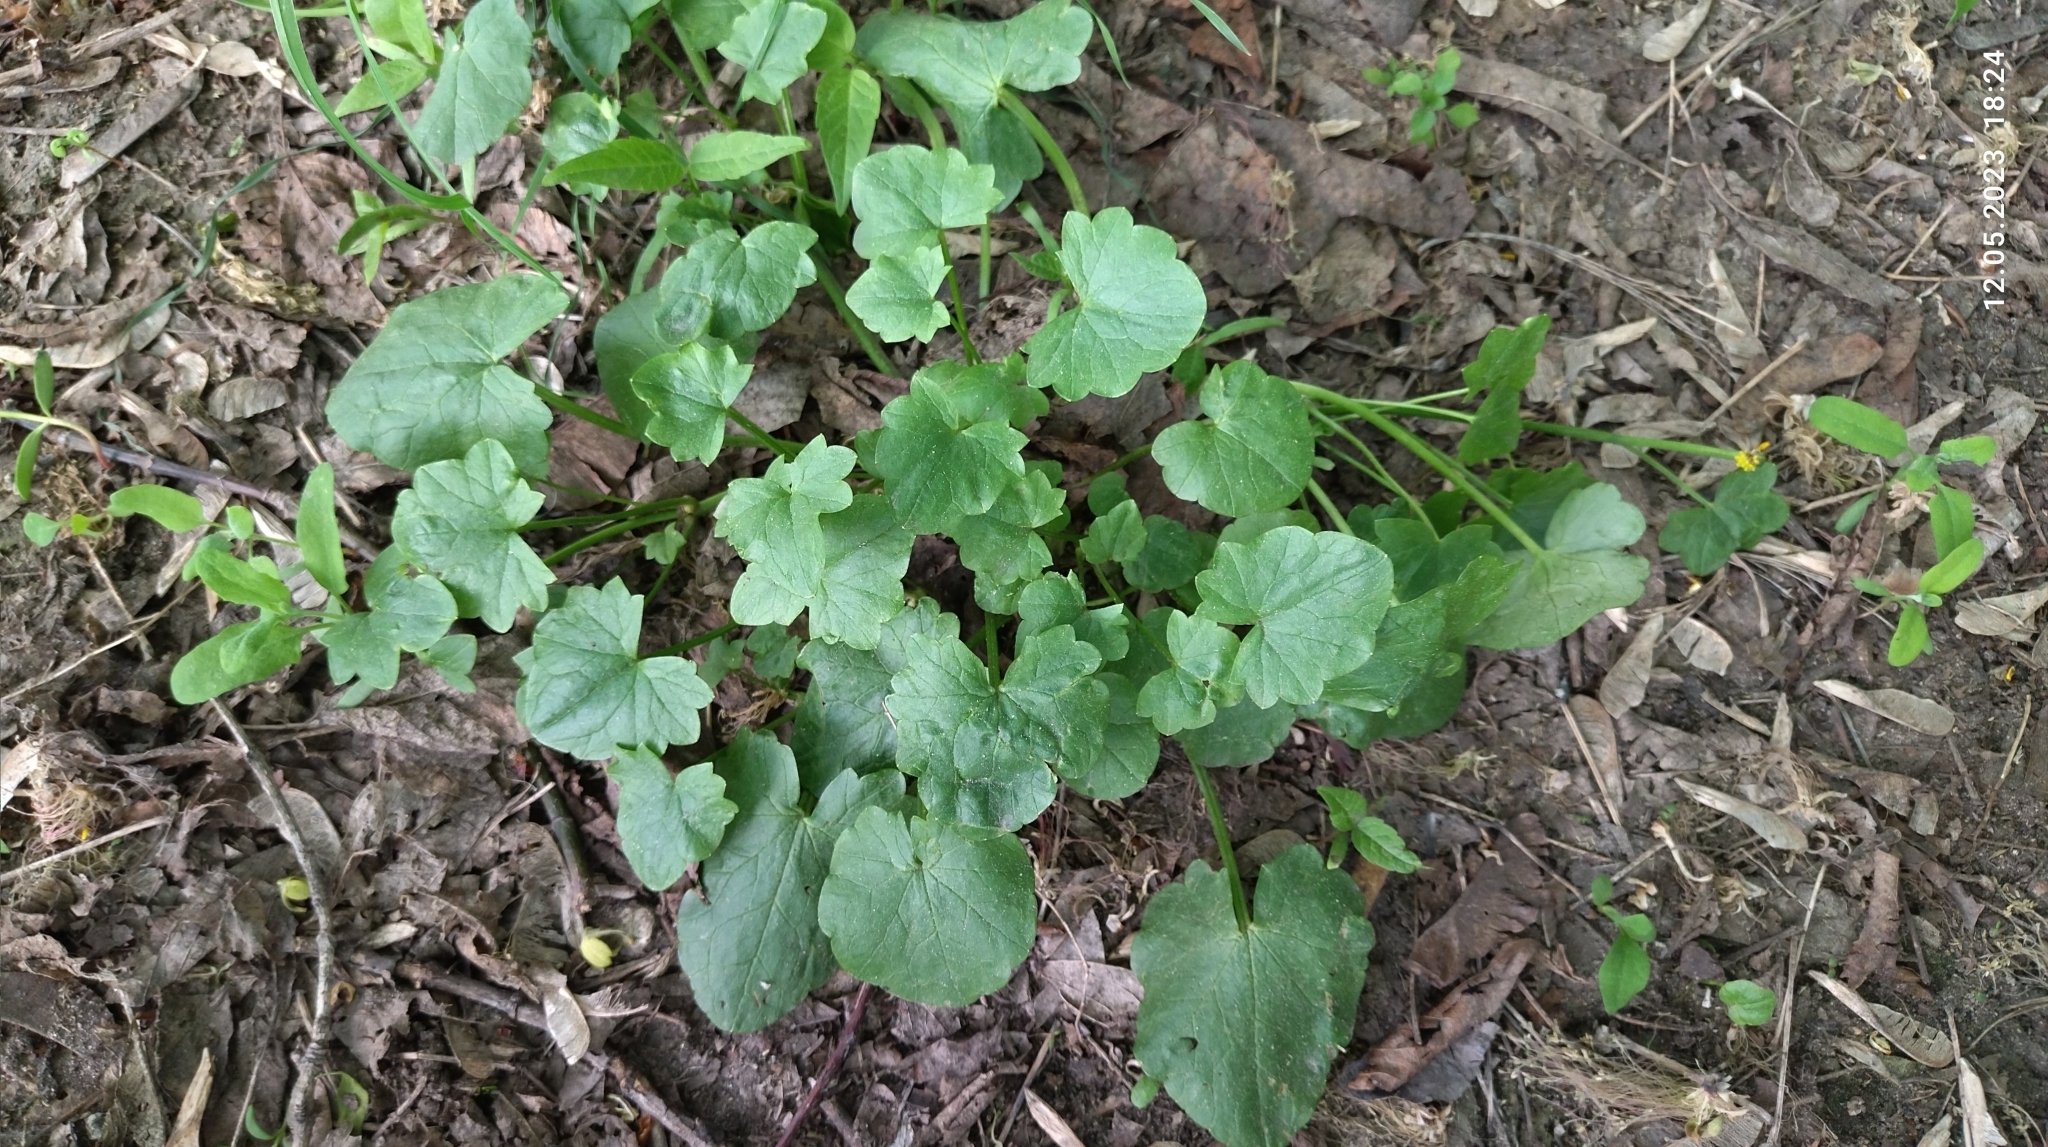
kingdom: Plantae
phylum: Tracheophyta
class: Magnoliopsida
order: Ranunculales
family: Ranunculaceae
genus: Ficaria
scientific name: Ficaria verna
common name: Lesser celandine
